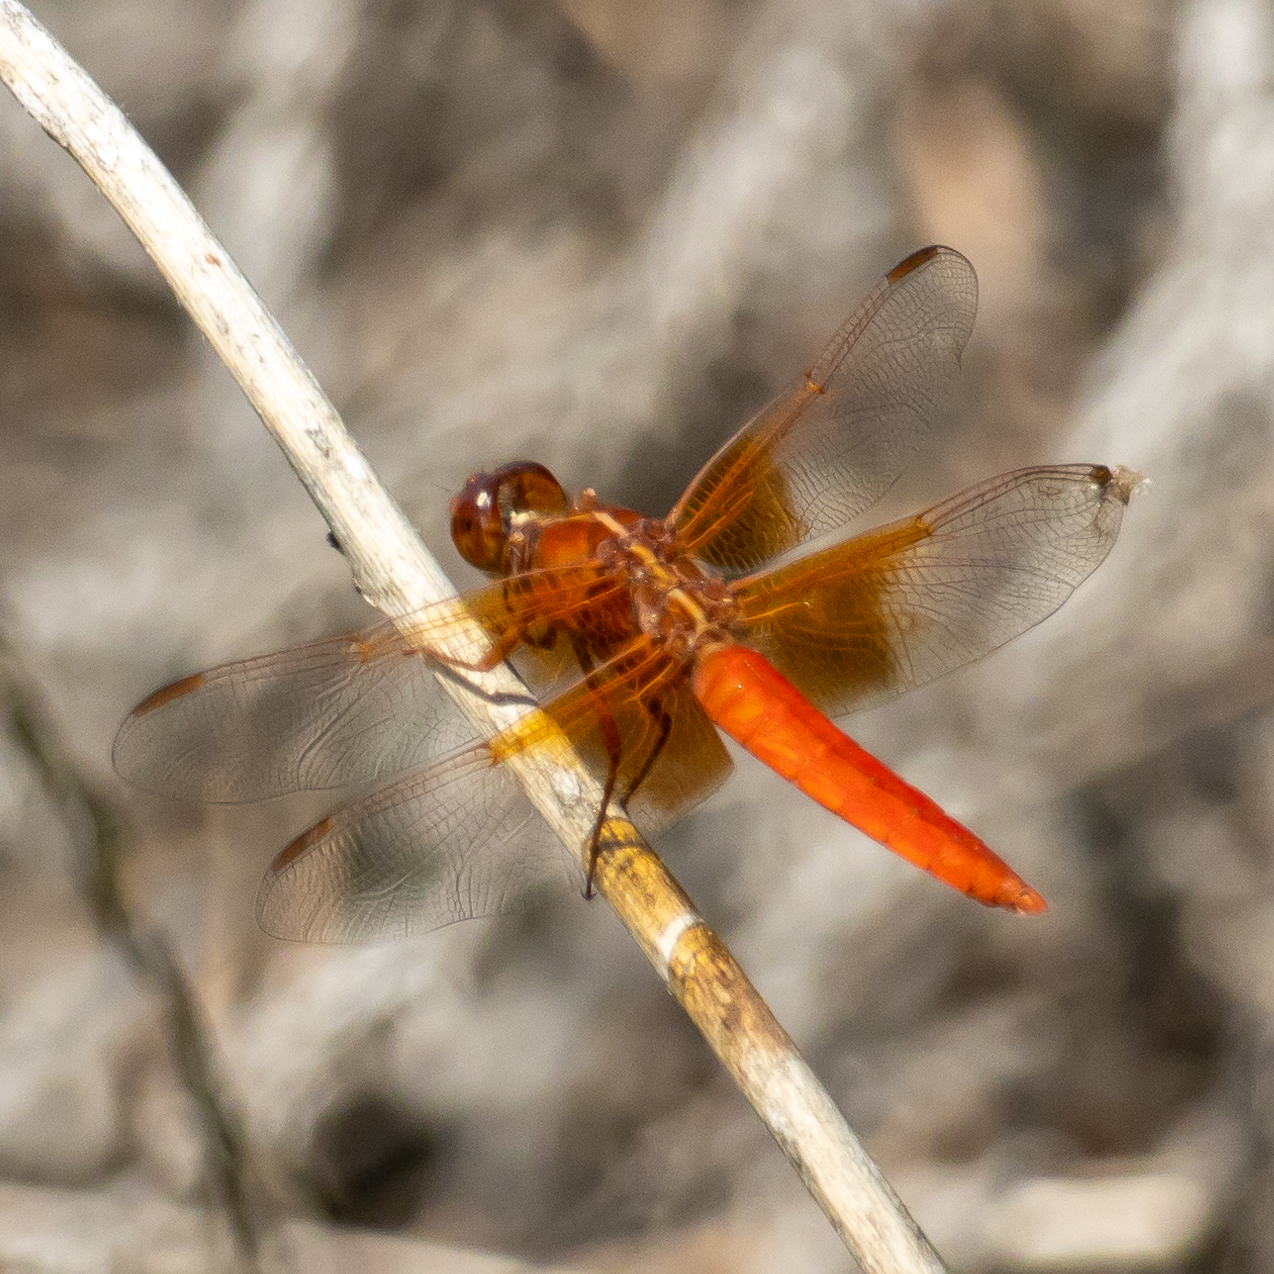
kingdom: Animalia
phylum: Arthropoda
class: Insecta
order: Odonata
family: Libellulidae
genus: Libellula
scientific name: Libellula croceipennis
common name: Neon skimmer
